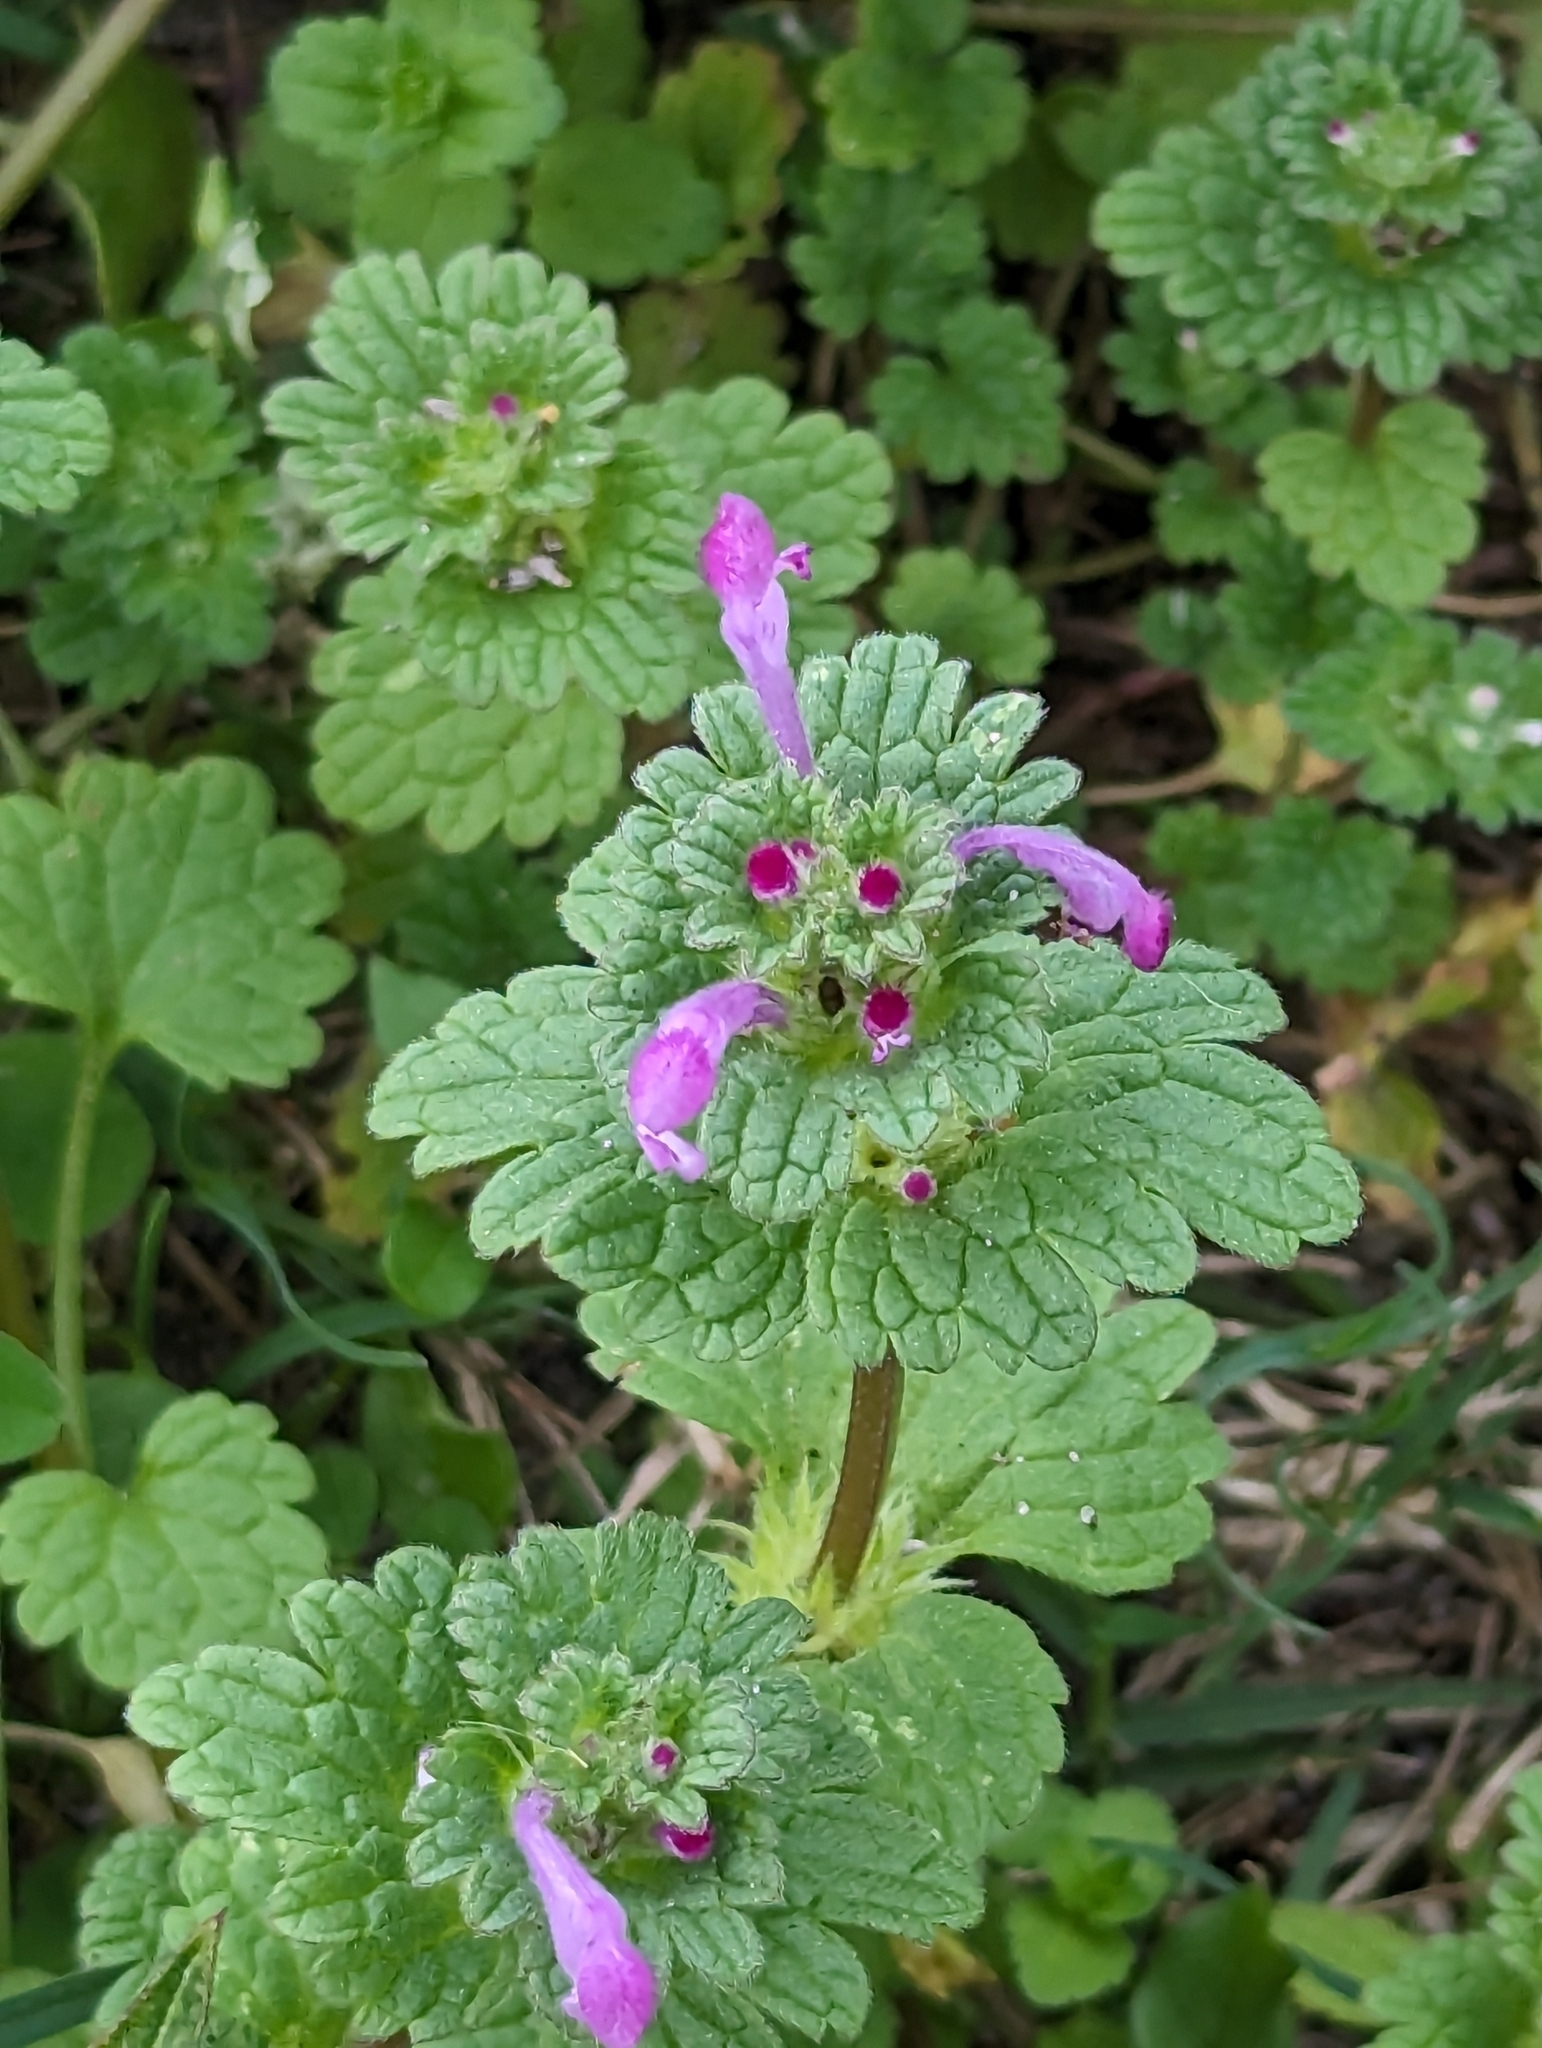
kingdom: Plantae
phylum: Tracheophyta
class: Magnoliopsida
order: Lamiales
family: Lamiaceae
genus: Lamium
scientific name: Lamium amplexicaule
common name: Henbit dead-nettle
